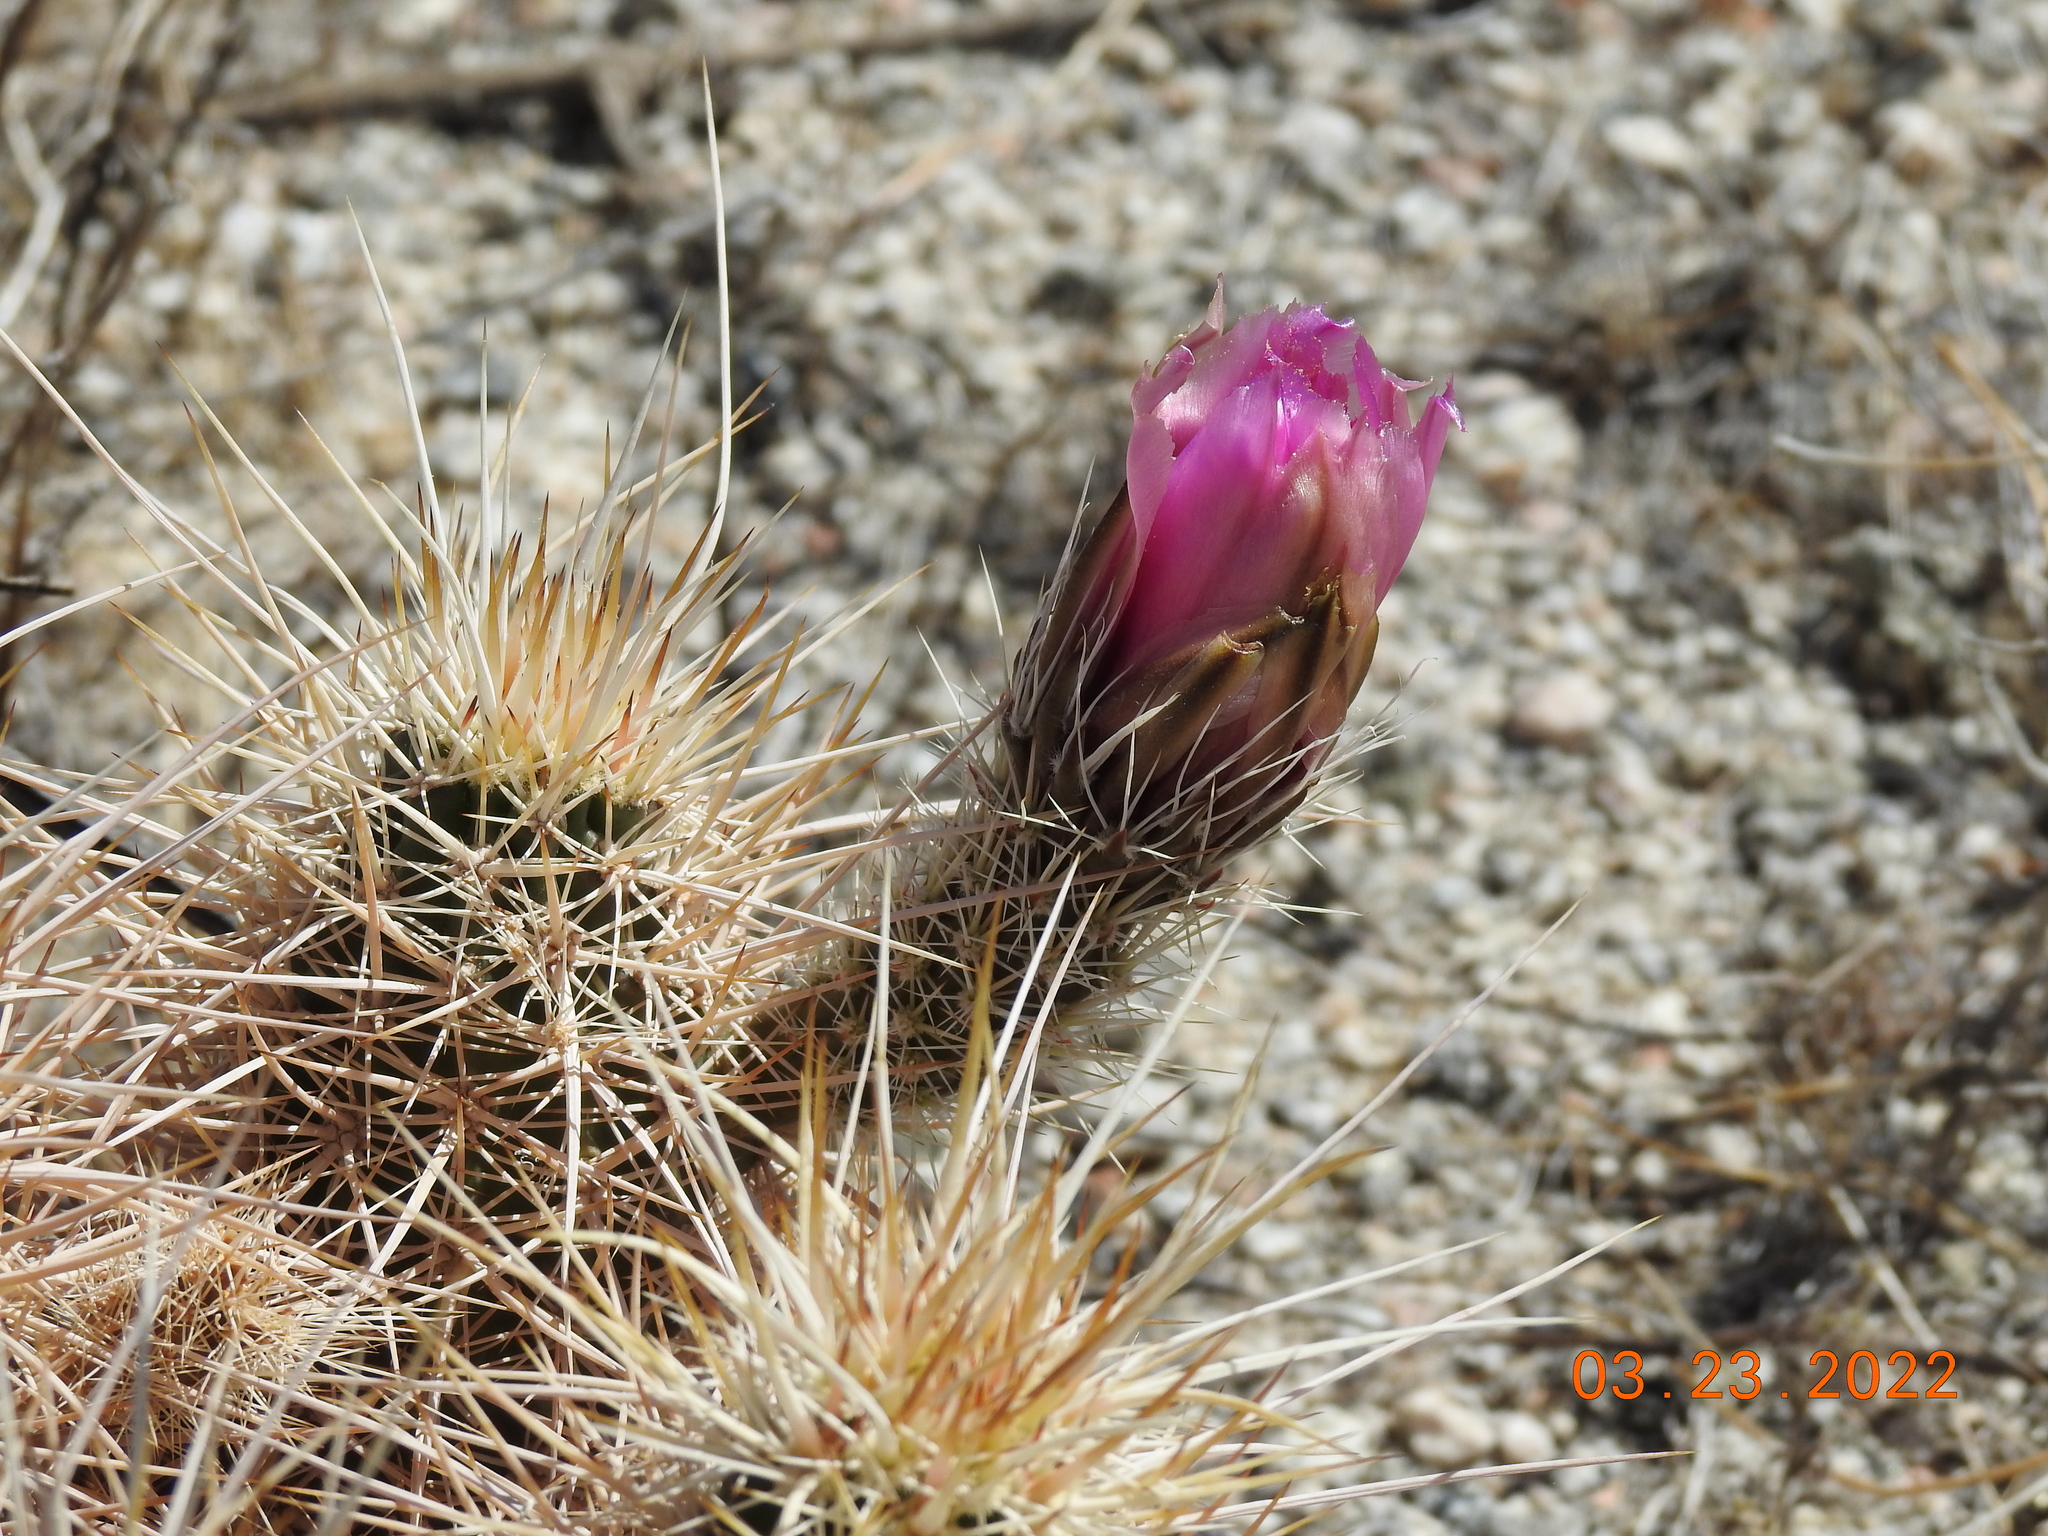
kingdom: Plantae
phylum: Tracheophyta
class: Magnoliopsida
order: Caryophyllales
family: Cactaceae
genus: Echinocereus
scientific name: Echinocereus engelmannii
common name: Engelmann's hedgehog cactus
